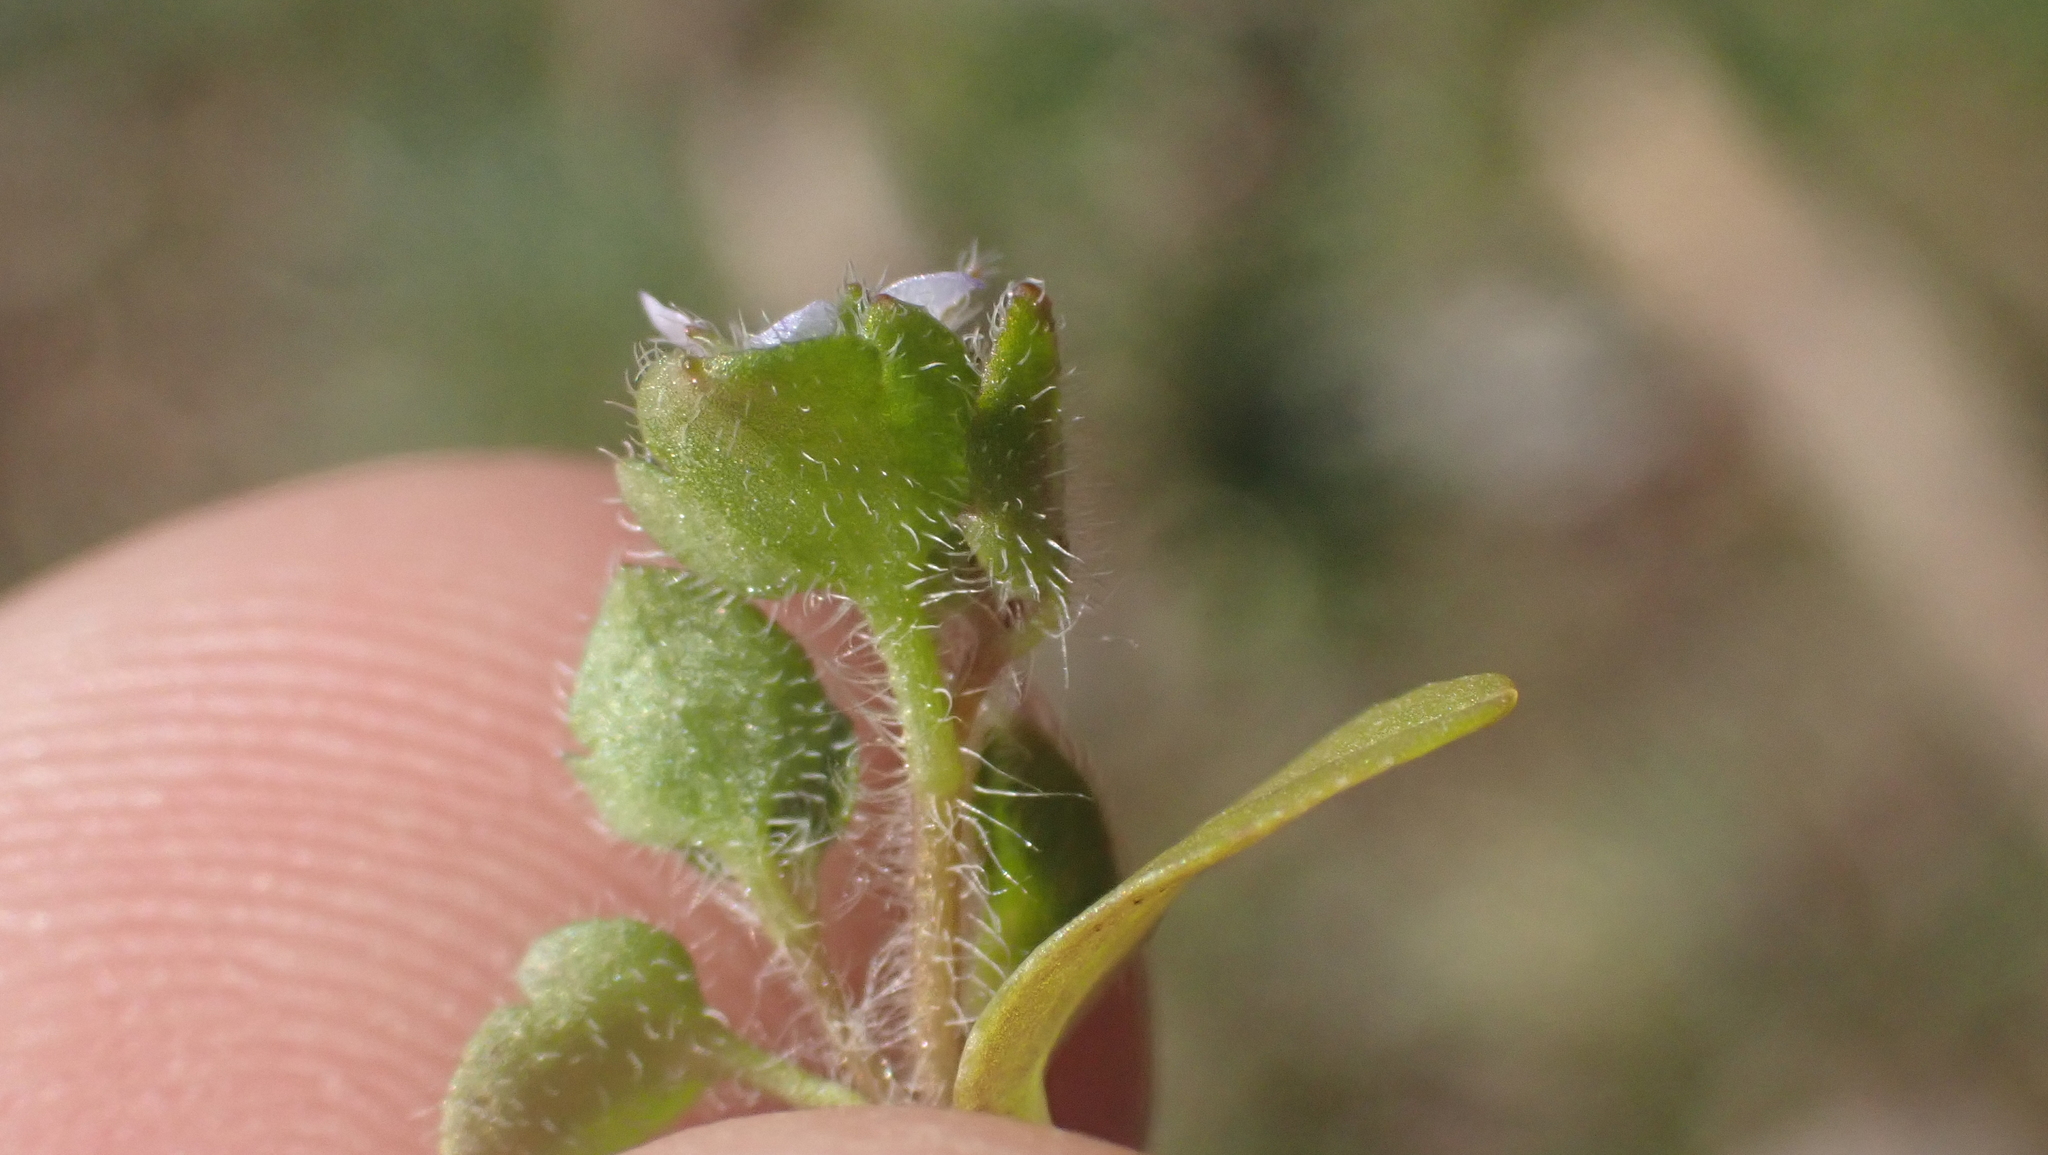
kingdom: Plantae
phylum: Tracheophyta
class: Magnoliopsida
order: Lamiales
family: Plantaginaceae
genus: Veronica
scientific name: Veronica hederifolia
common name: Ivy-leaved speedwell
